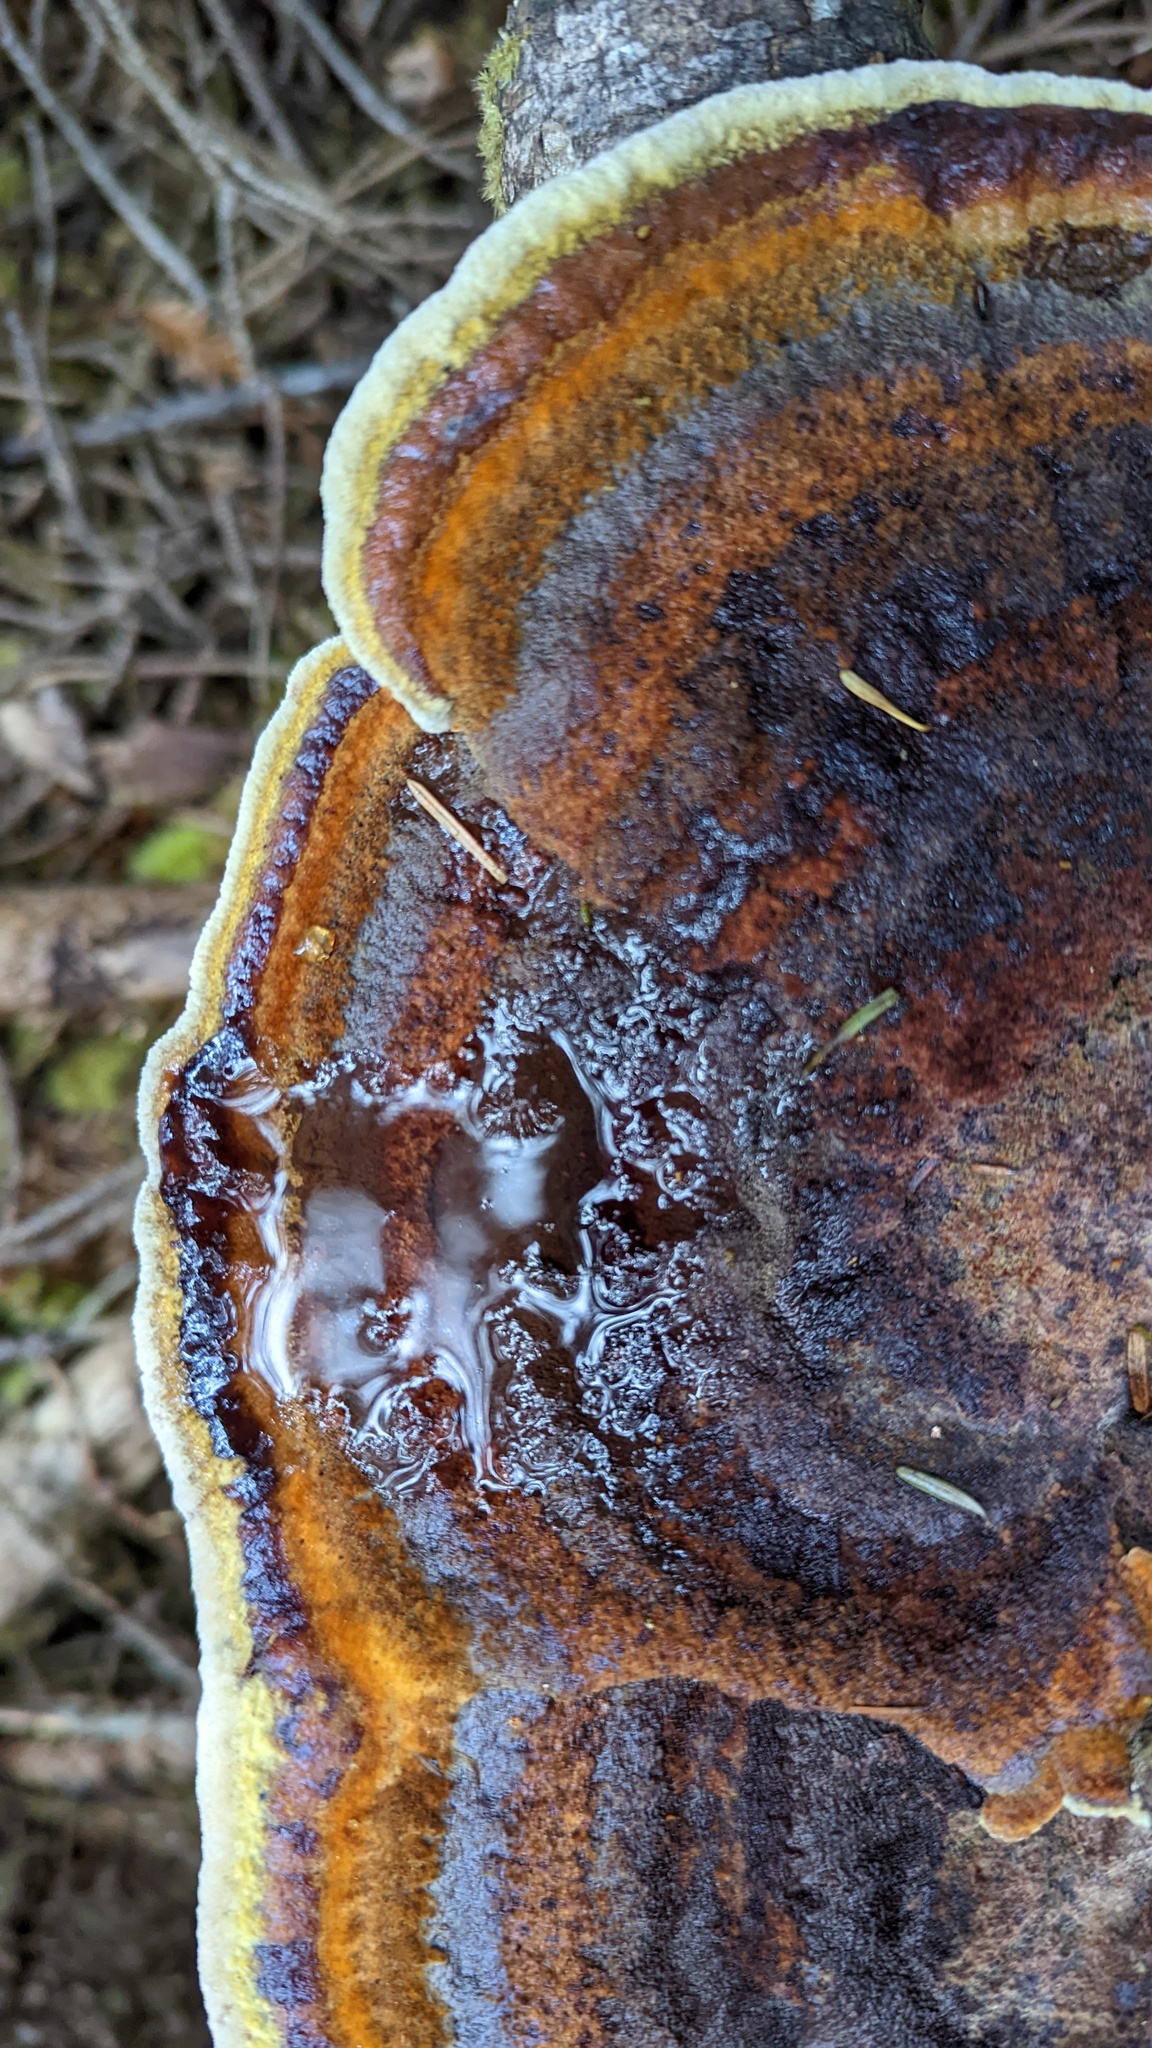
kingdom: Fungi
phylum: Basidiomycota
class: Agaricomycetes
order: Polyporales
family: Laetiporaceae
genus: Phaeolus
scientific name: Phaeolus schweinitzii
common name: Dyer's mazegill
